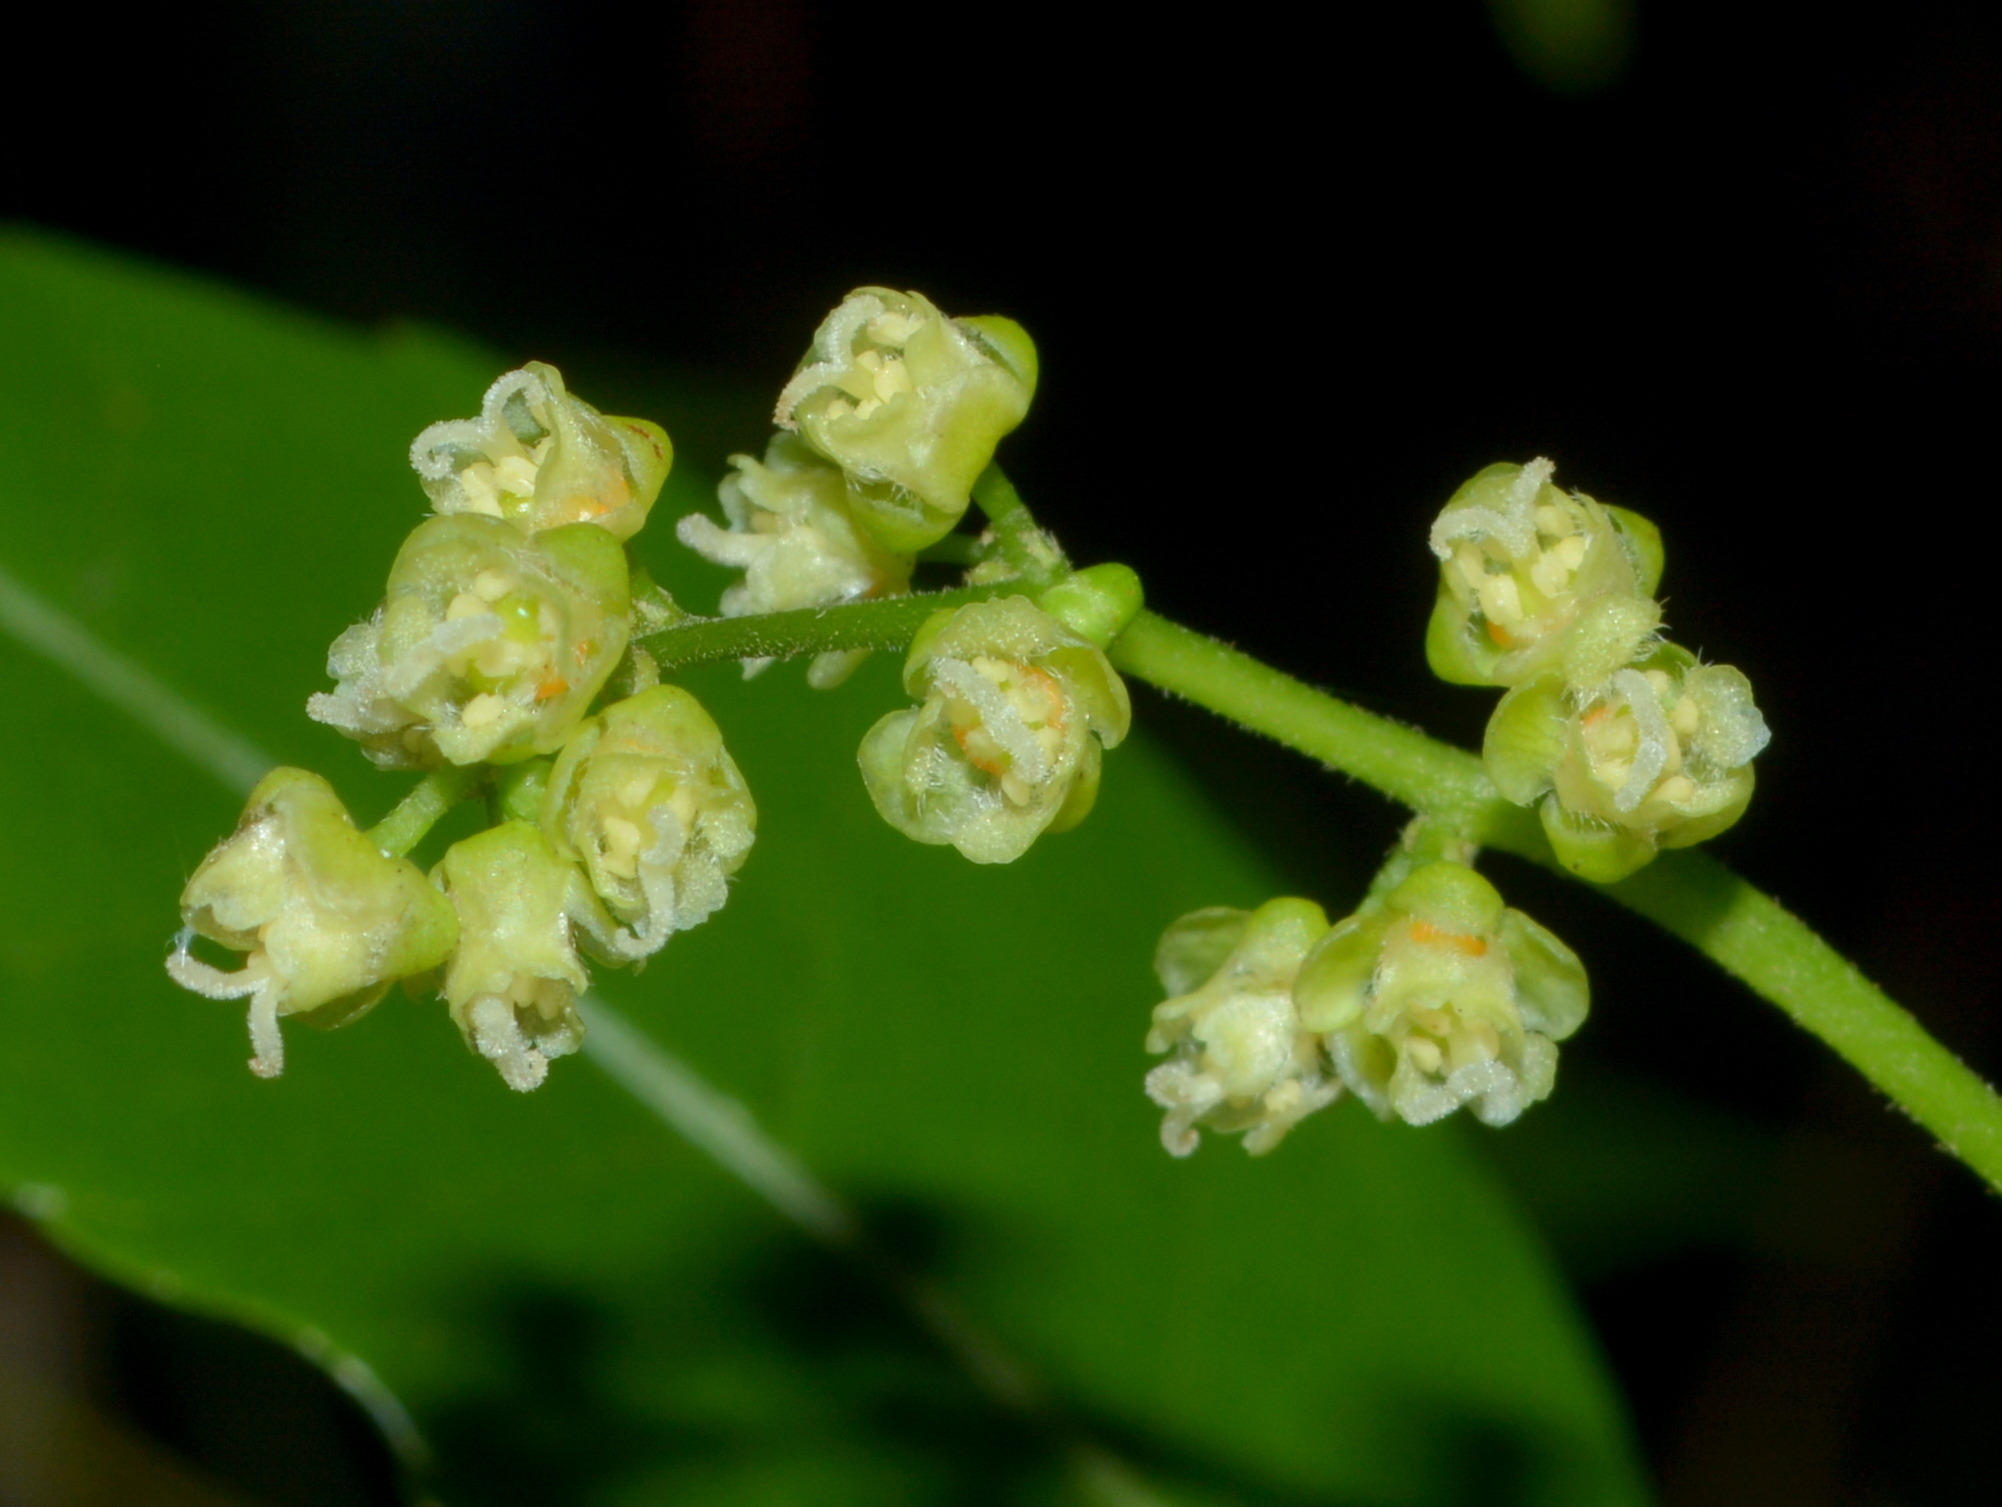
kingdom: Plantae
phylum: Tracheophyta
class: Magnoliopsida
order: Sapindales
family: Sapindaceae
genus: Allophylus
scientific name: Allophylus edulis
